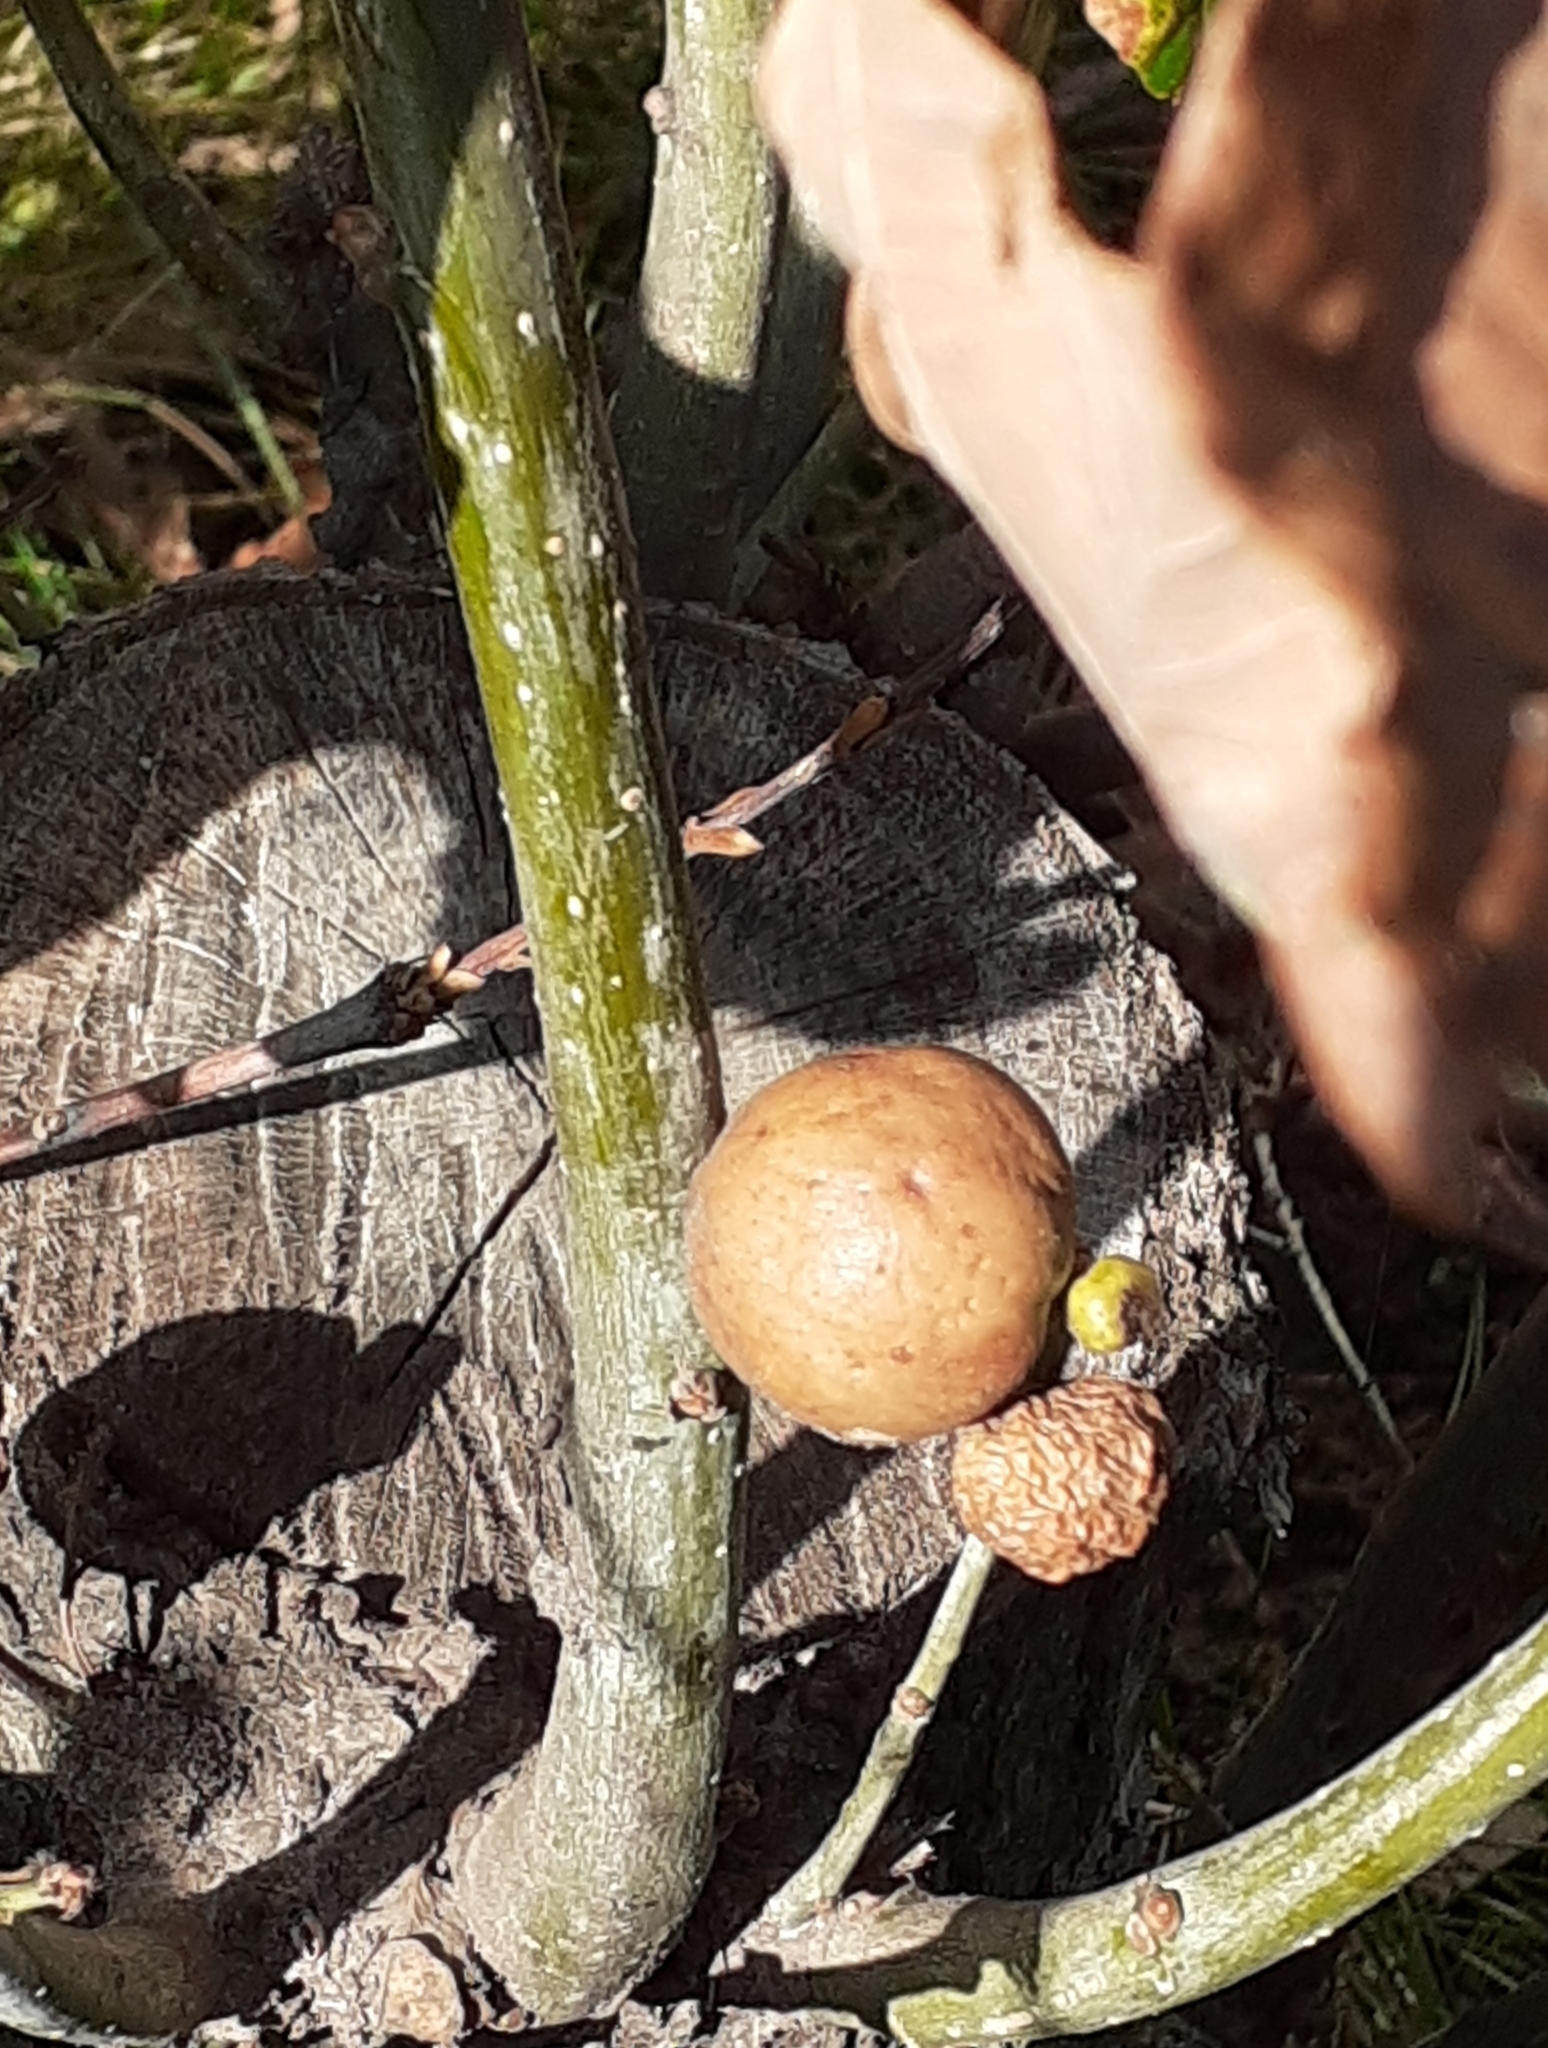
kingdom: Animalia
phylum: Arthropoda
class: Insecta
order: Hymenoptera
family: Cynipidae
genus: Andricus
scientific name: Andricus kollari
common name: Marble gall
